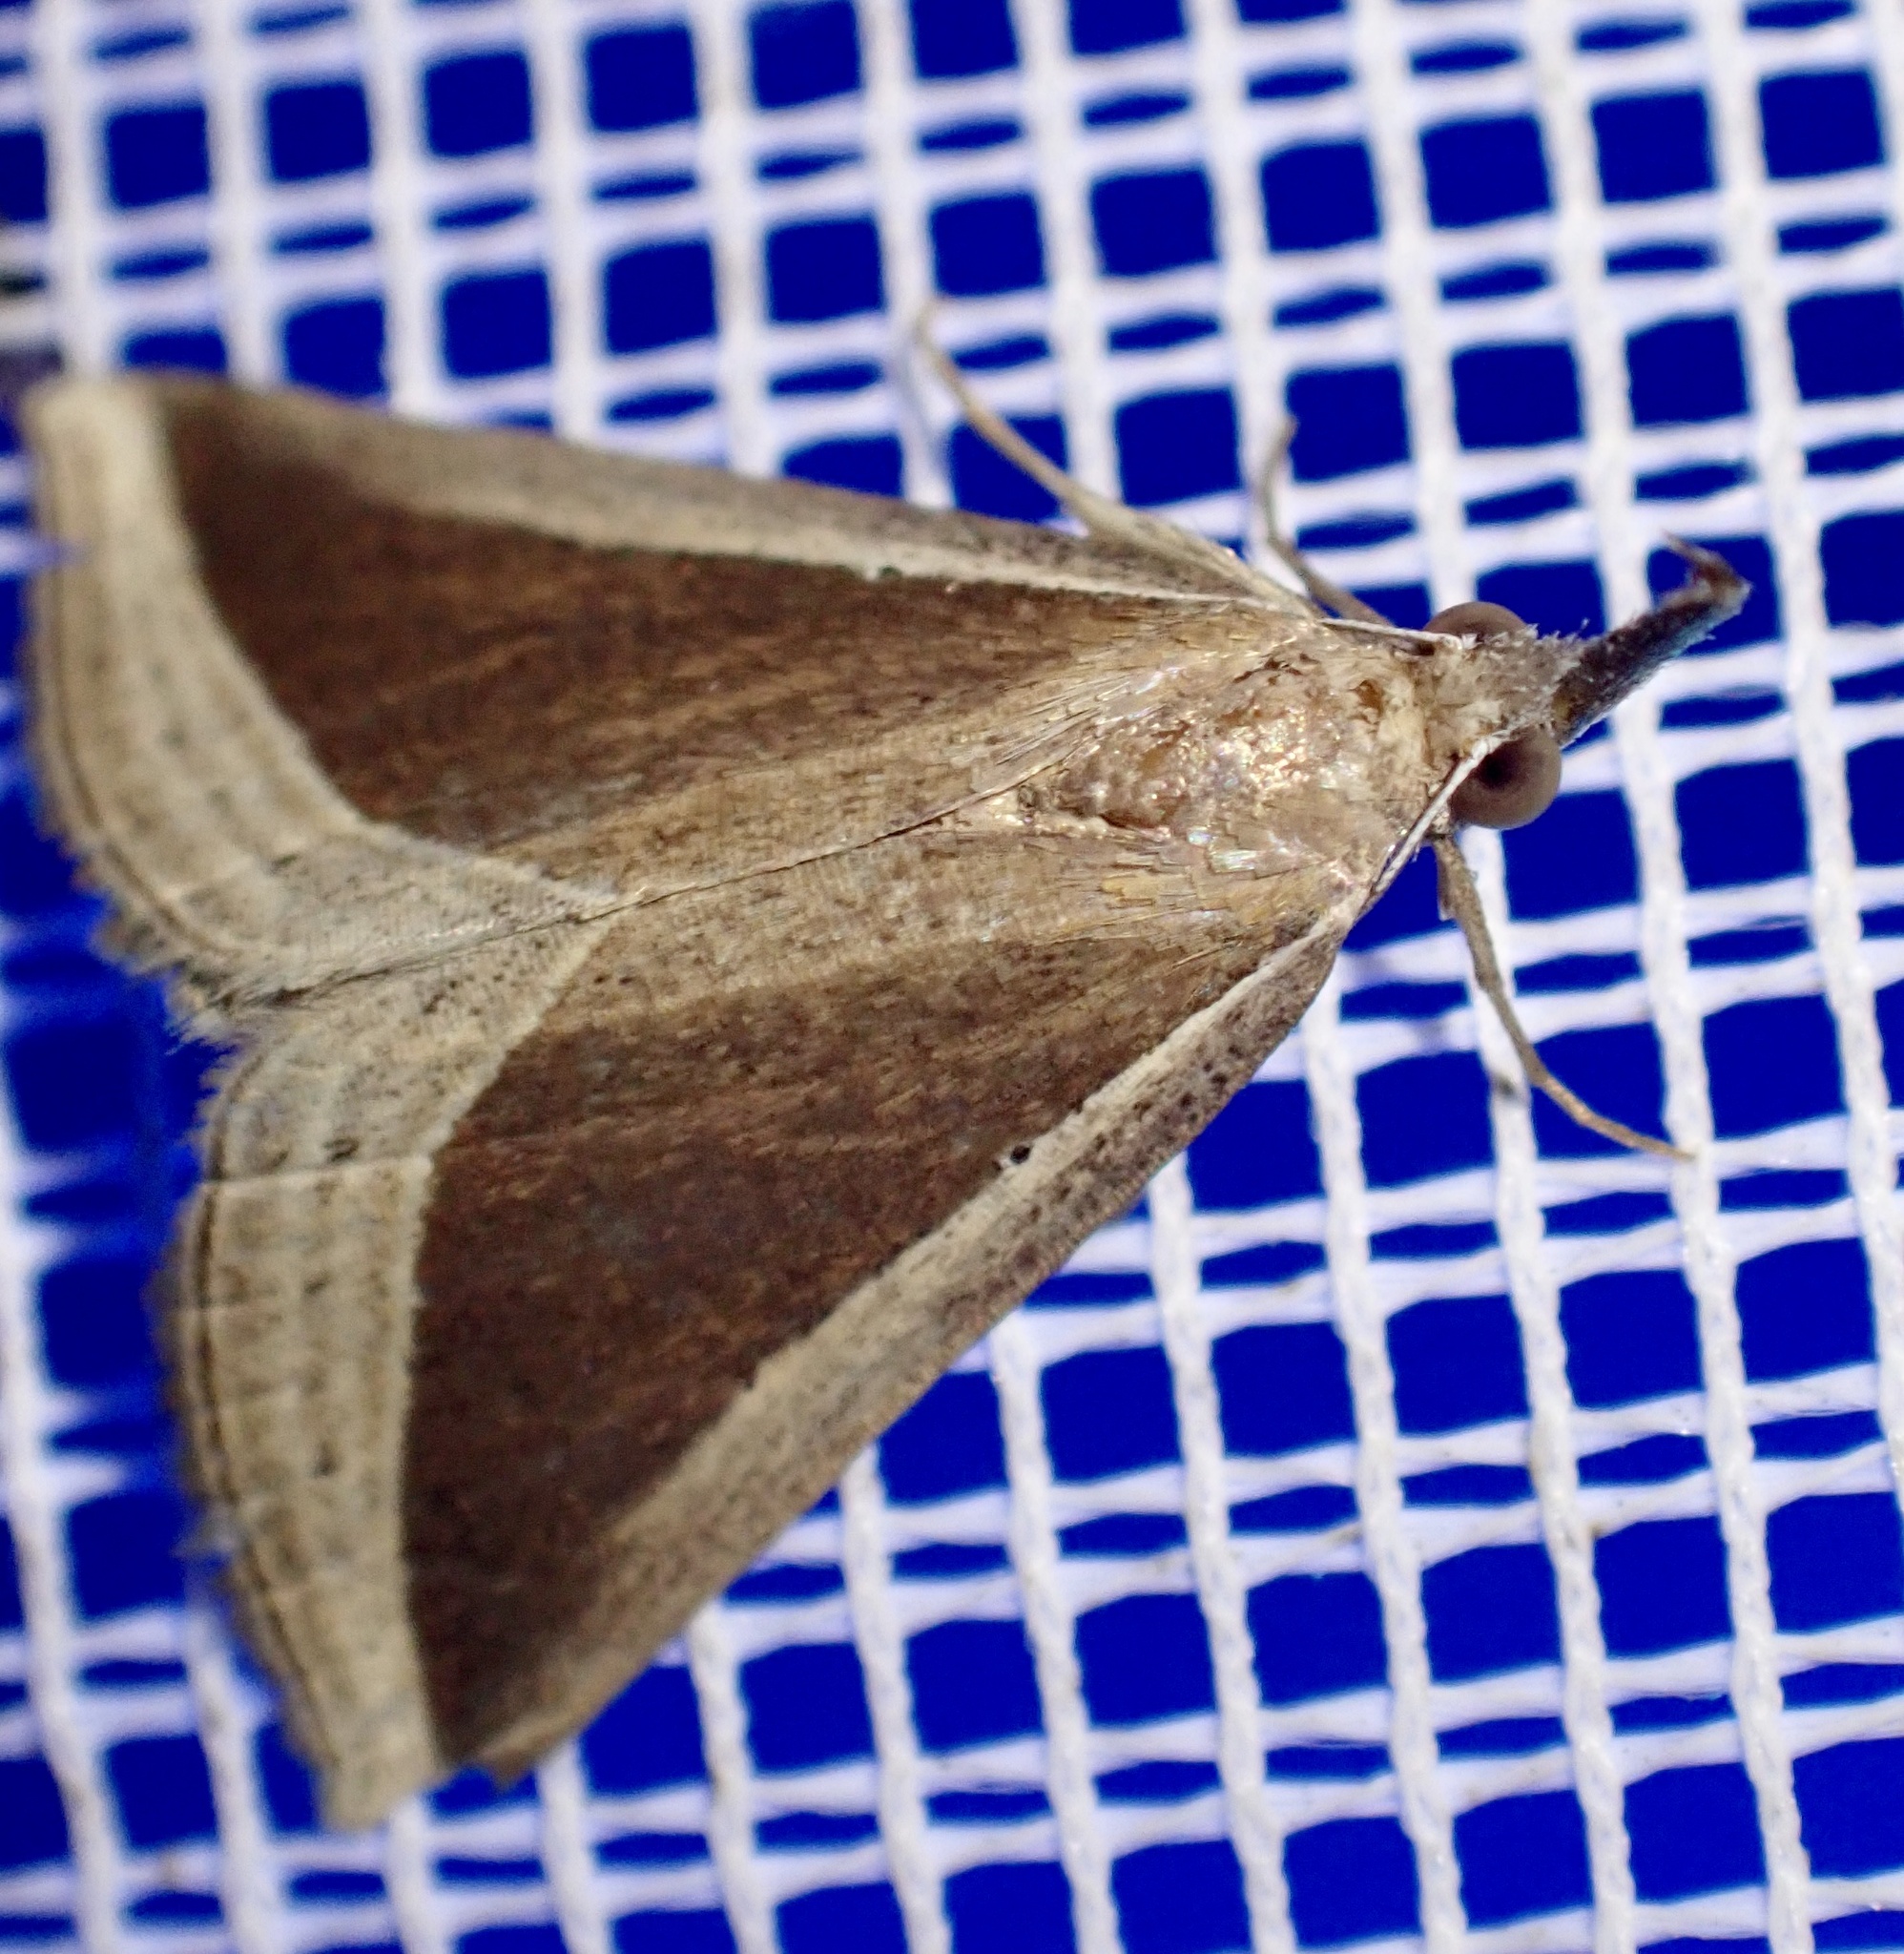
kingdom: Animalia
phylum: Arthropoda
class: Insecta
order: Lepidoptera
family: Erebidae
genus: Hypena
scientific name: Hypena conscitalis
